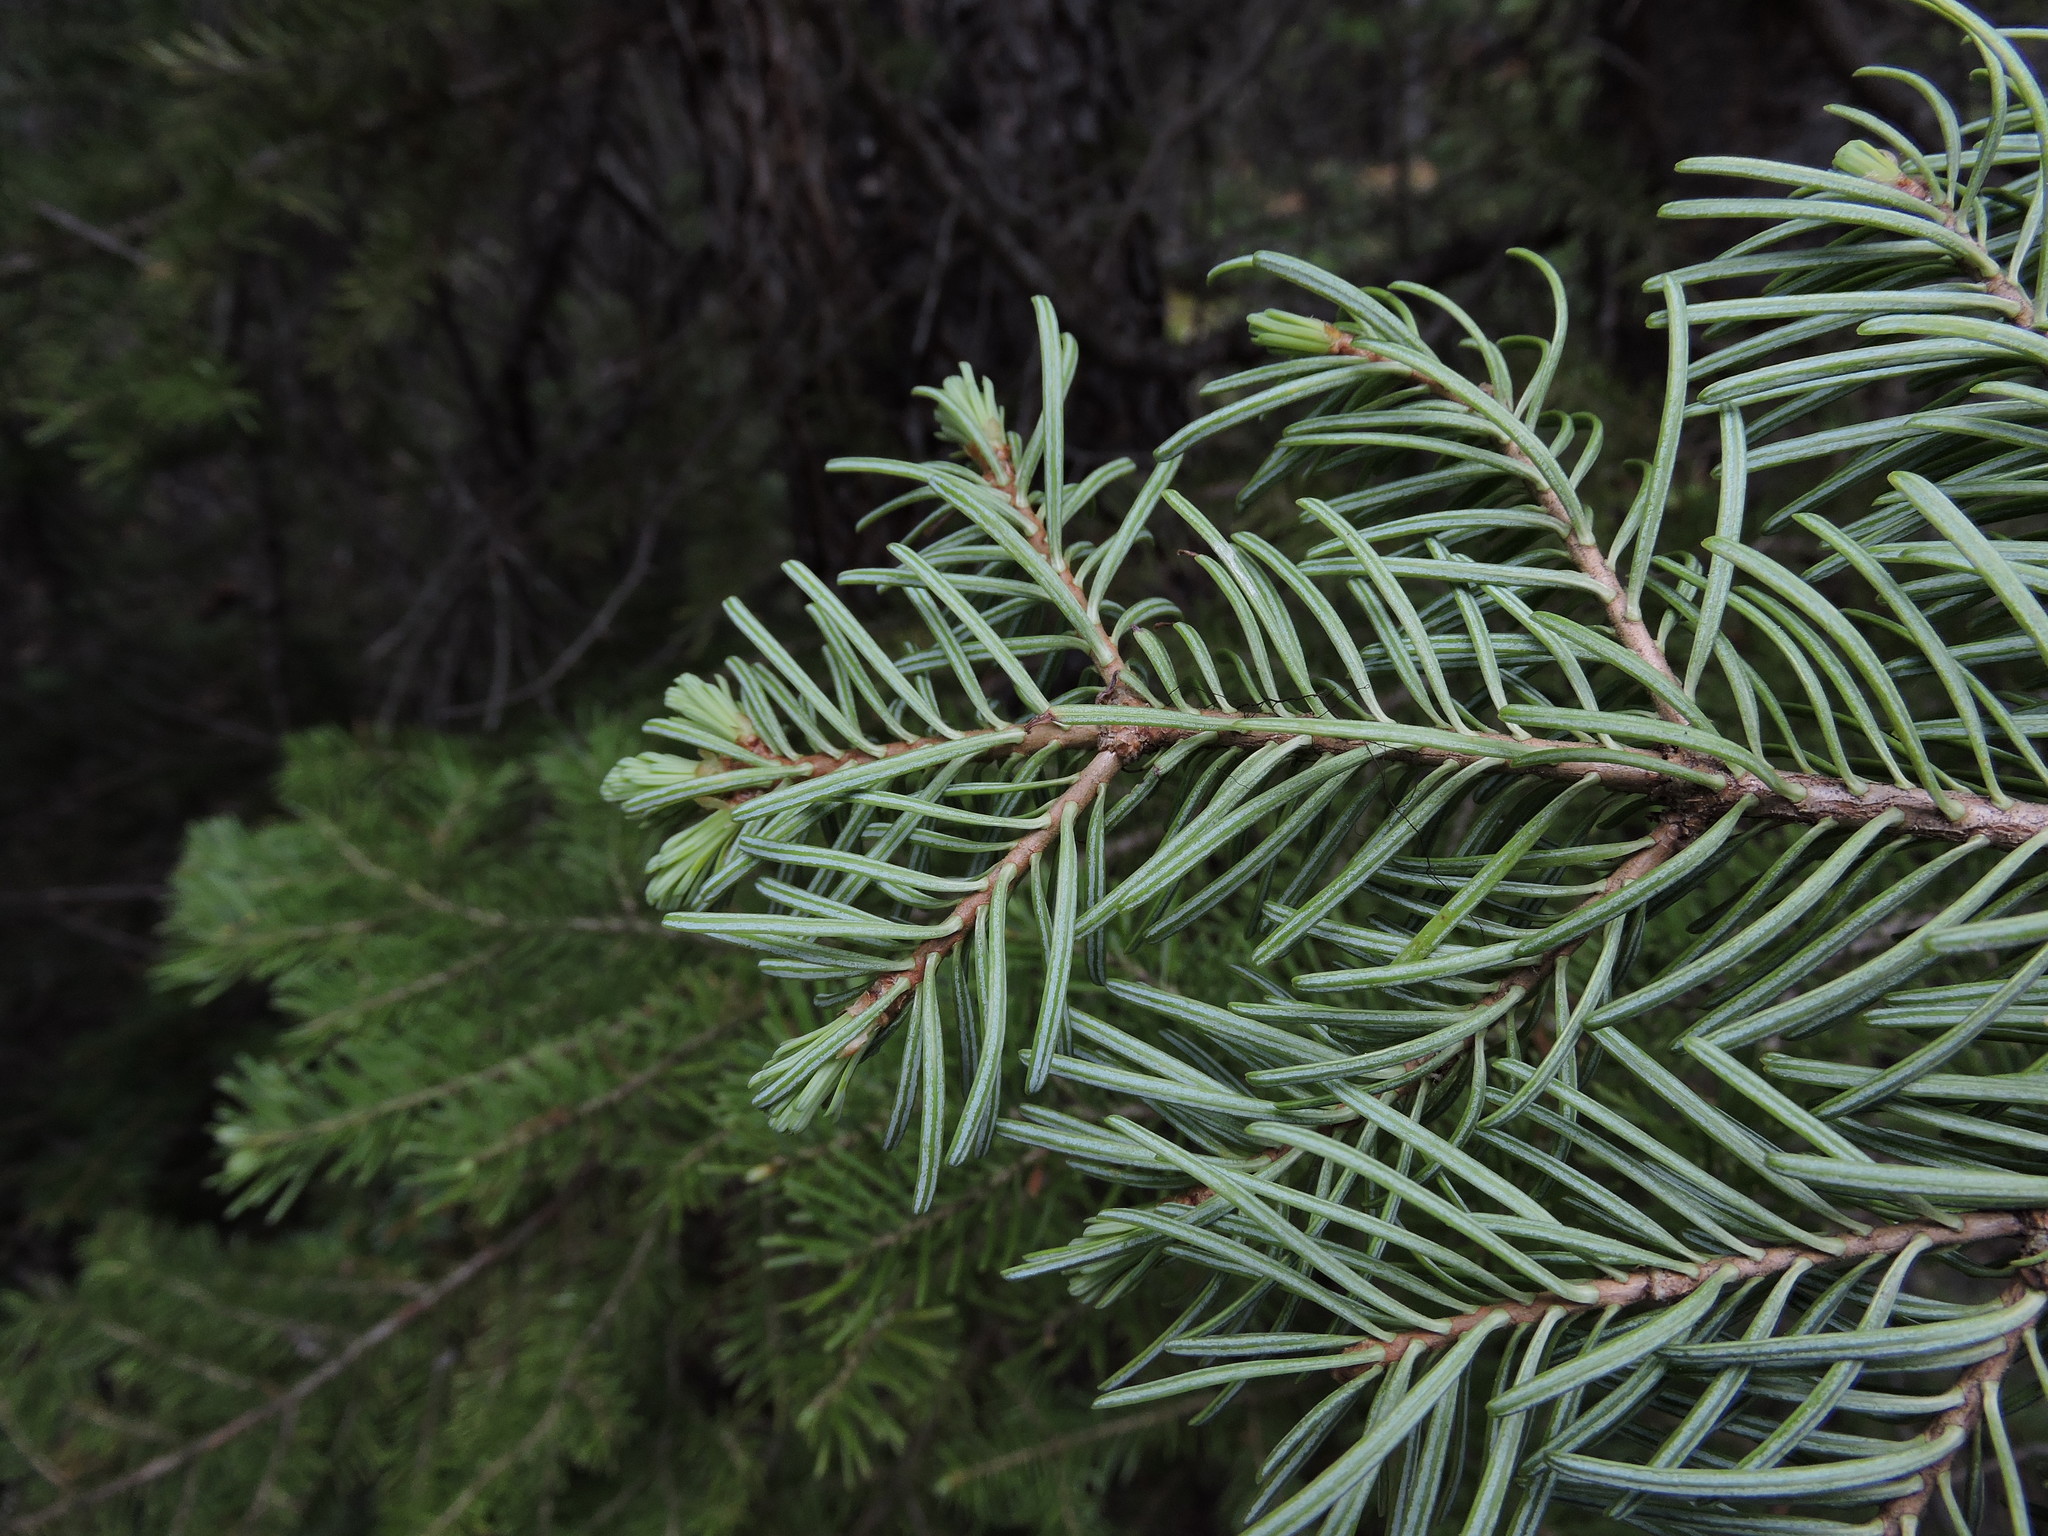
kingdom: Plantae
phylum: Tracheophyta
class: Pinopsida
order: Pinales
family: Pinaceae
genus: Abies
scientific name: Abies lasiocarpa
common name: Subalpine fir
